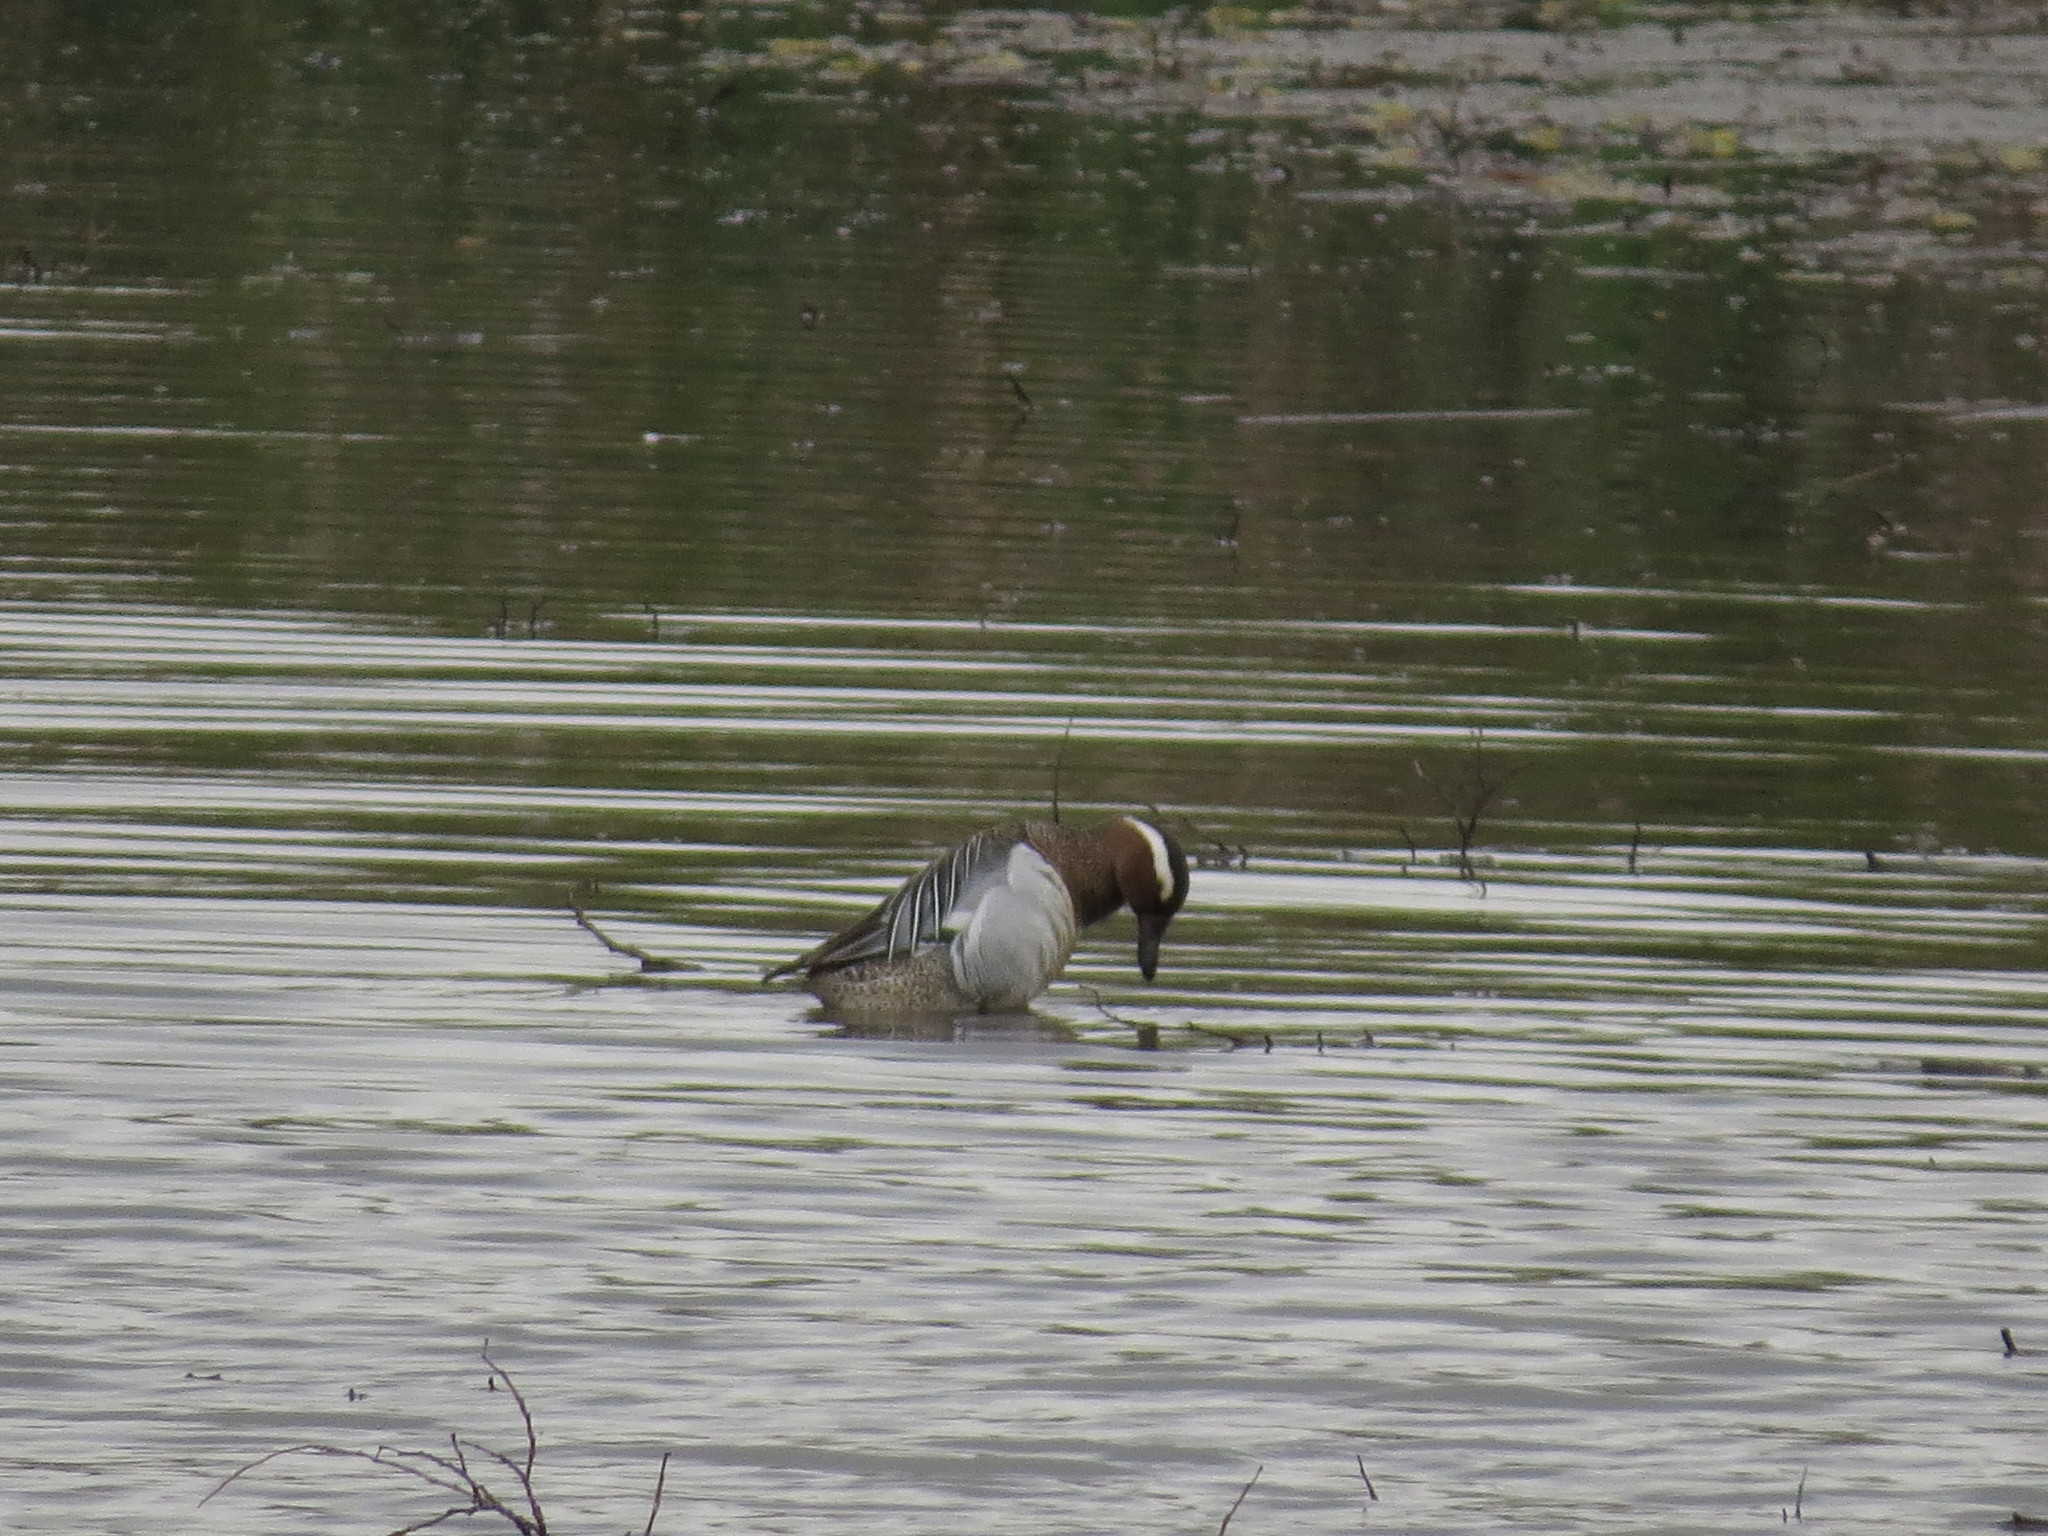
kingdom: Animalia
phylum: Chordata
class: Aves
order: Anseriformes
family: Anatidae
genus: Spatula
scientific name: Spatula querquedula
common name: Garganey
